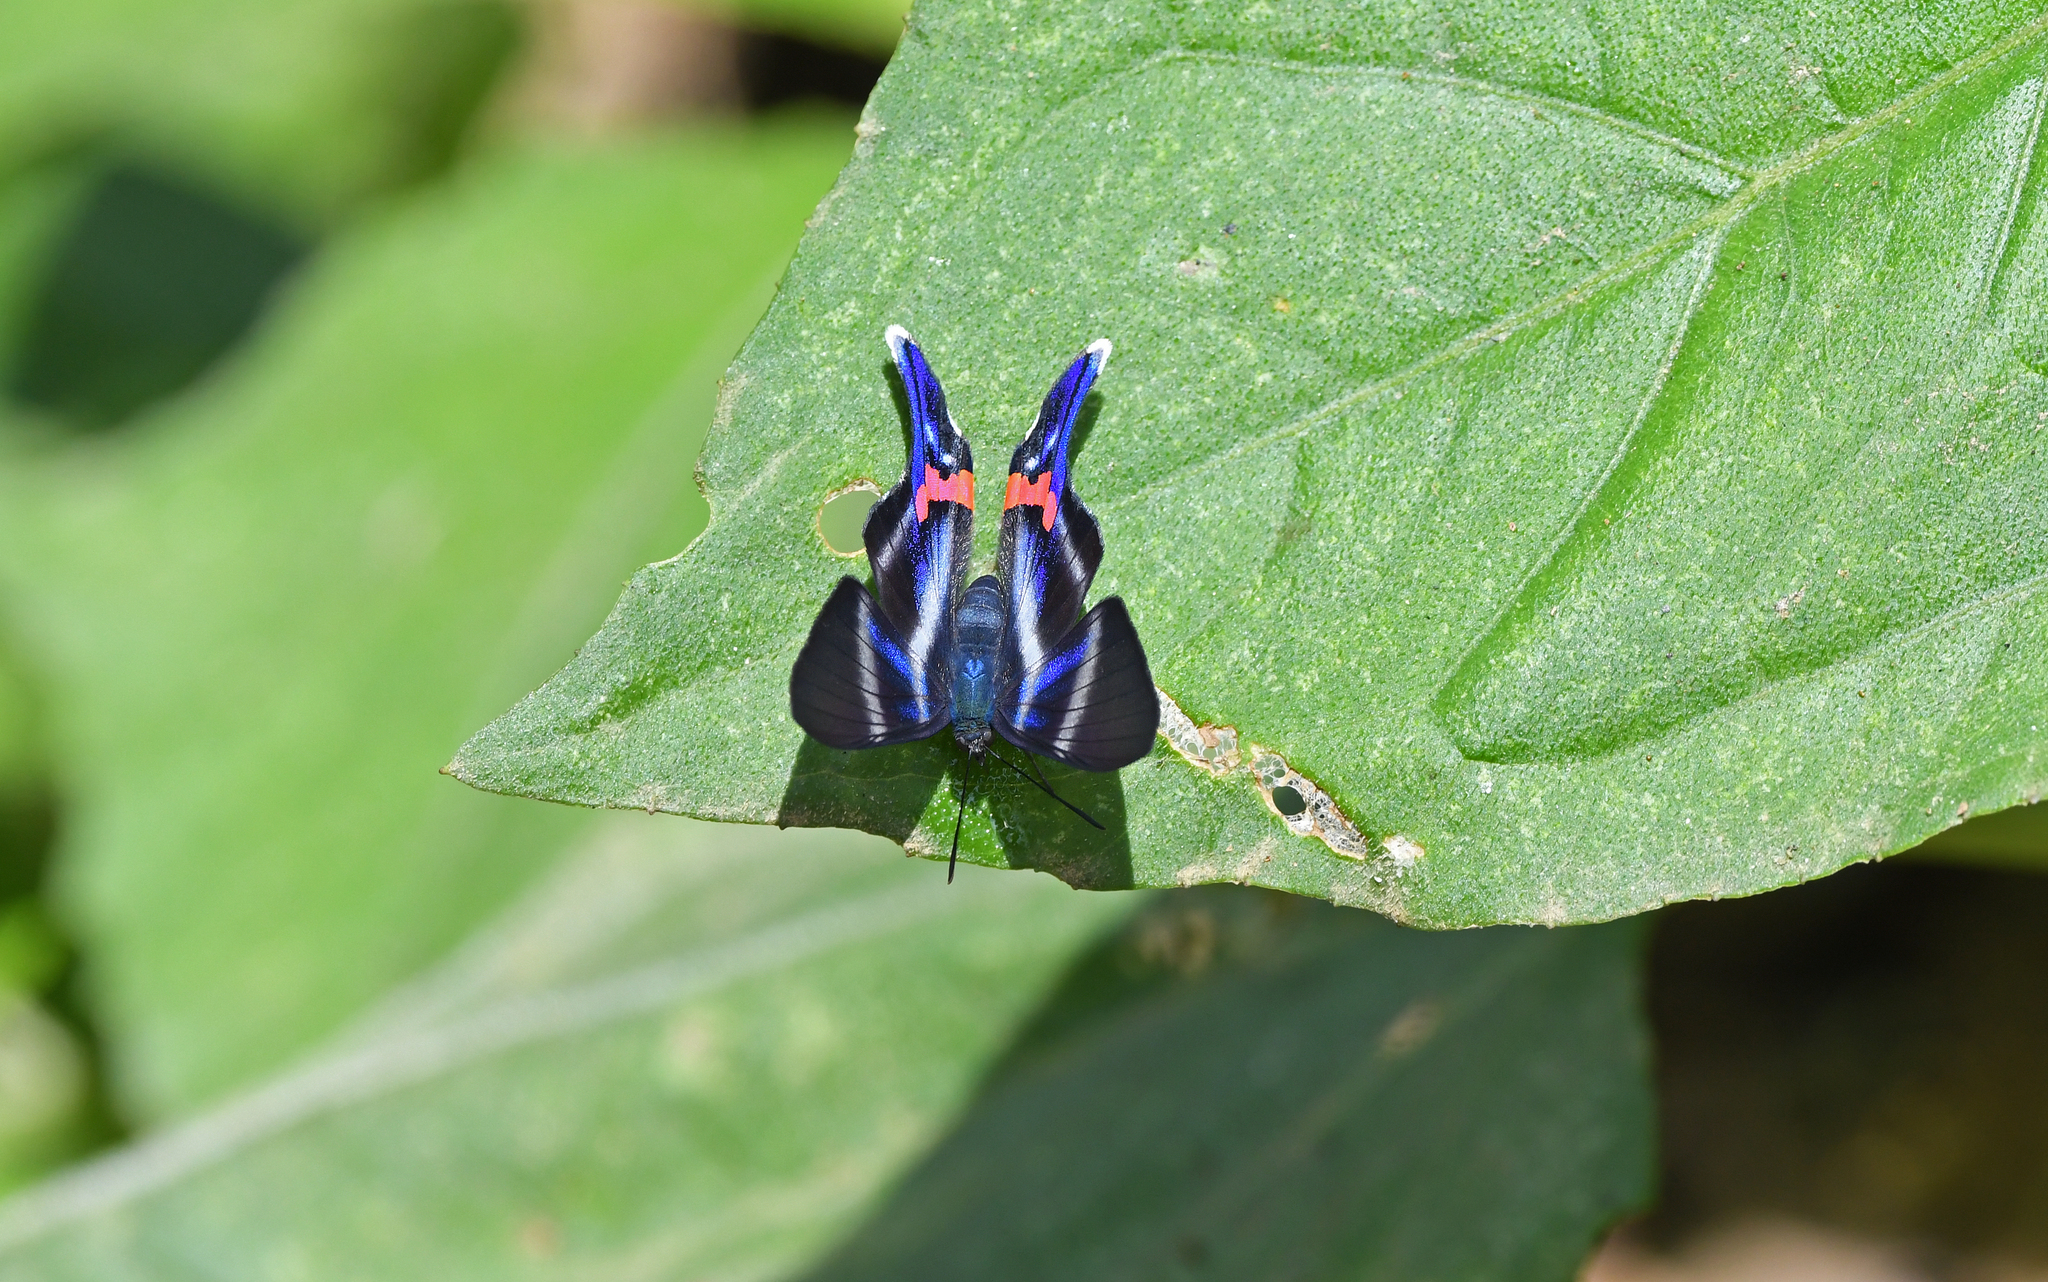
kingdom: Animalia
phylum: Arthropoda
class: Insecta
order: Lepidoptera
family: Riodinidae
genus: Rhetus
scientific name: Rhetus arcius
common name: Long-tailed metalmark
